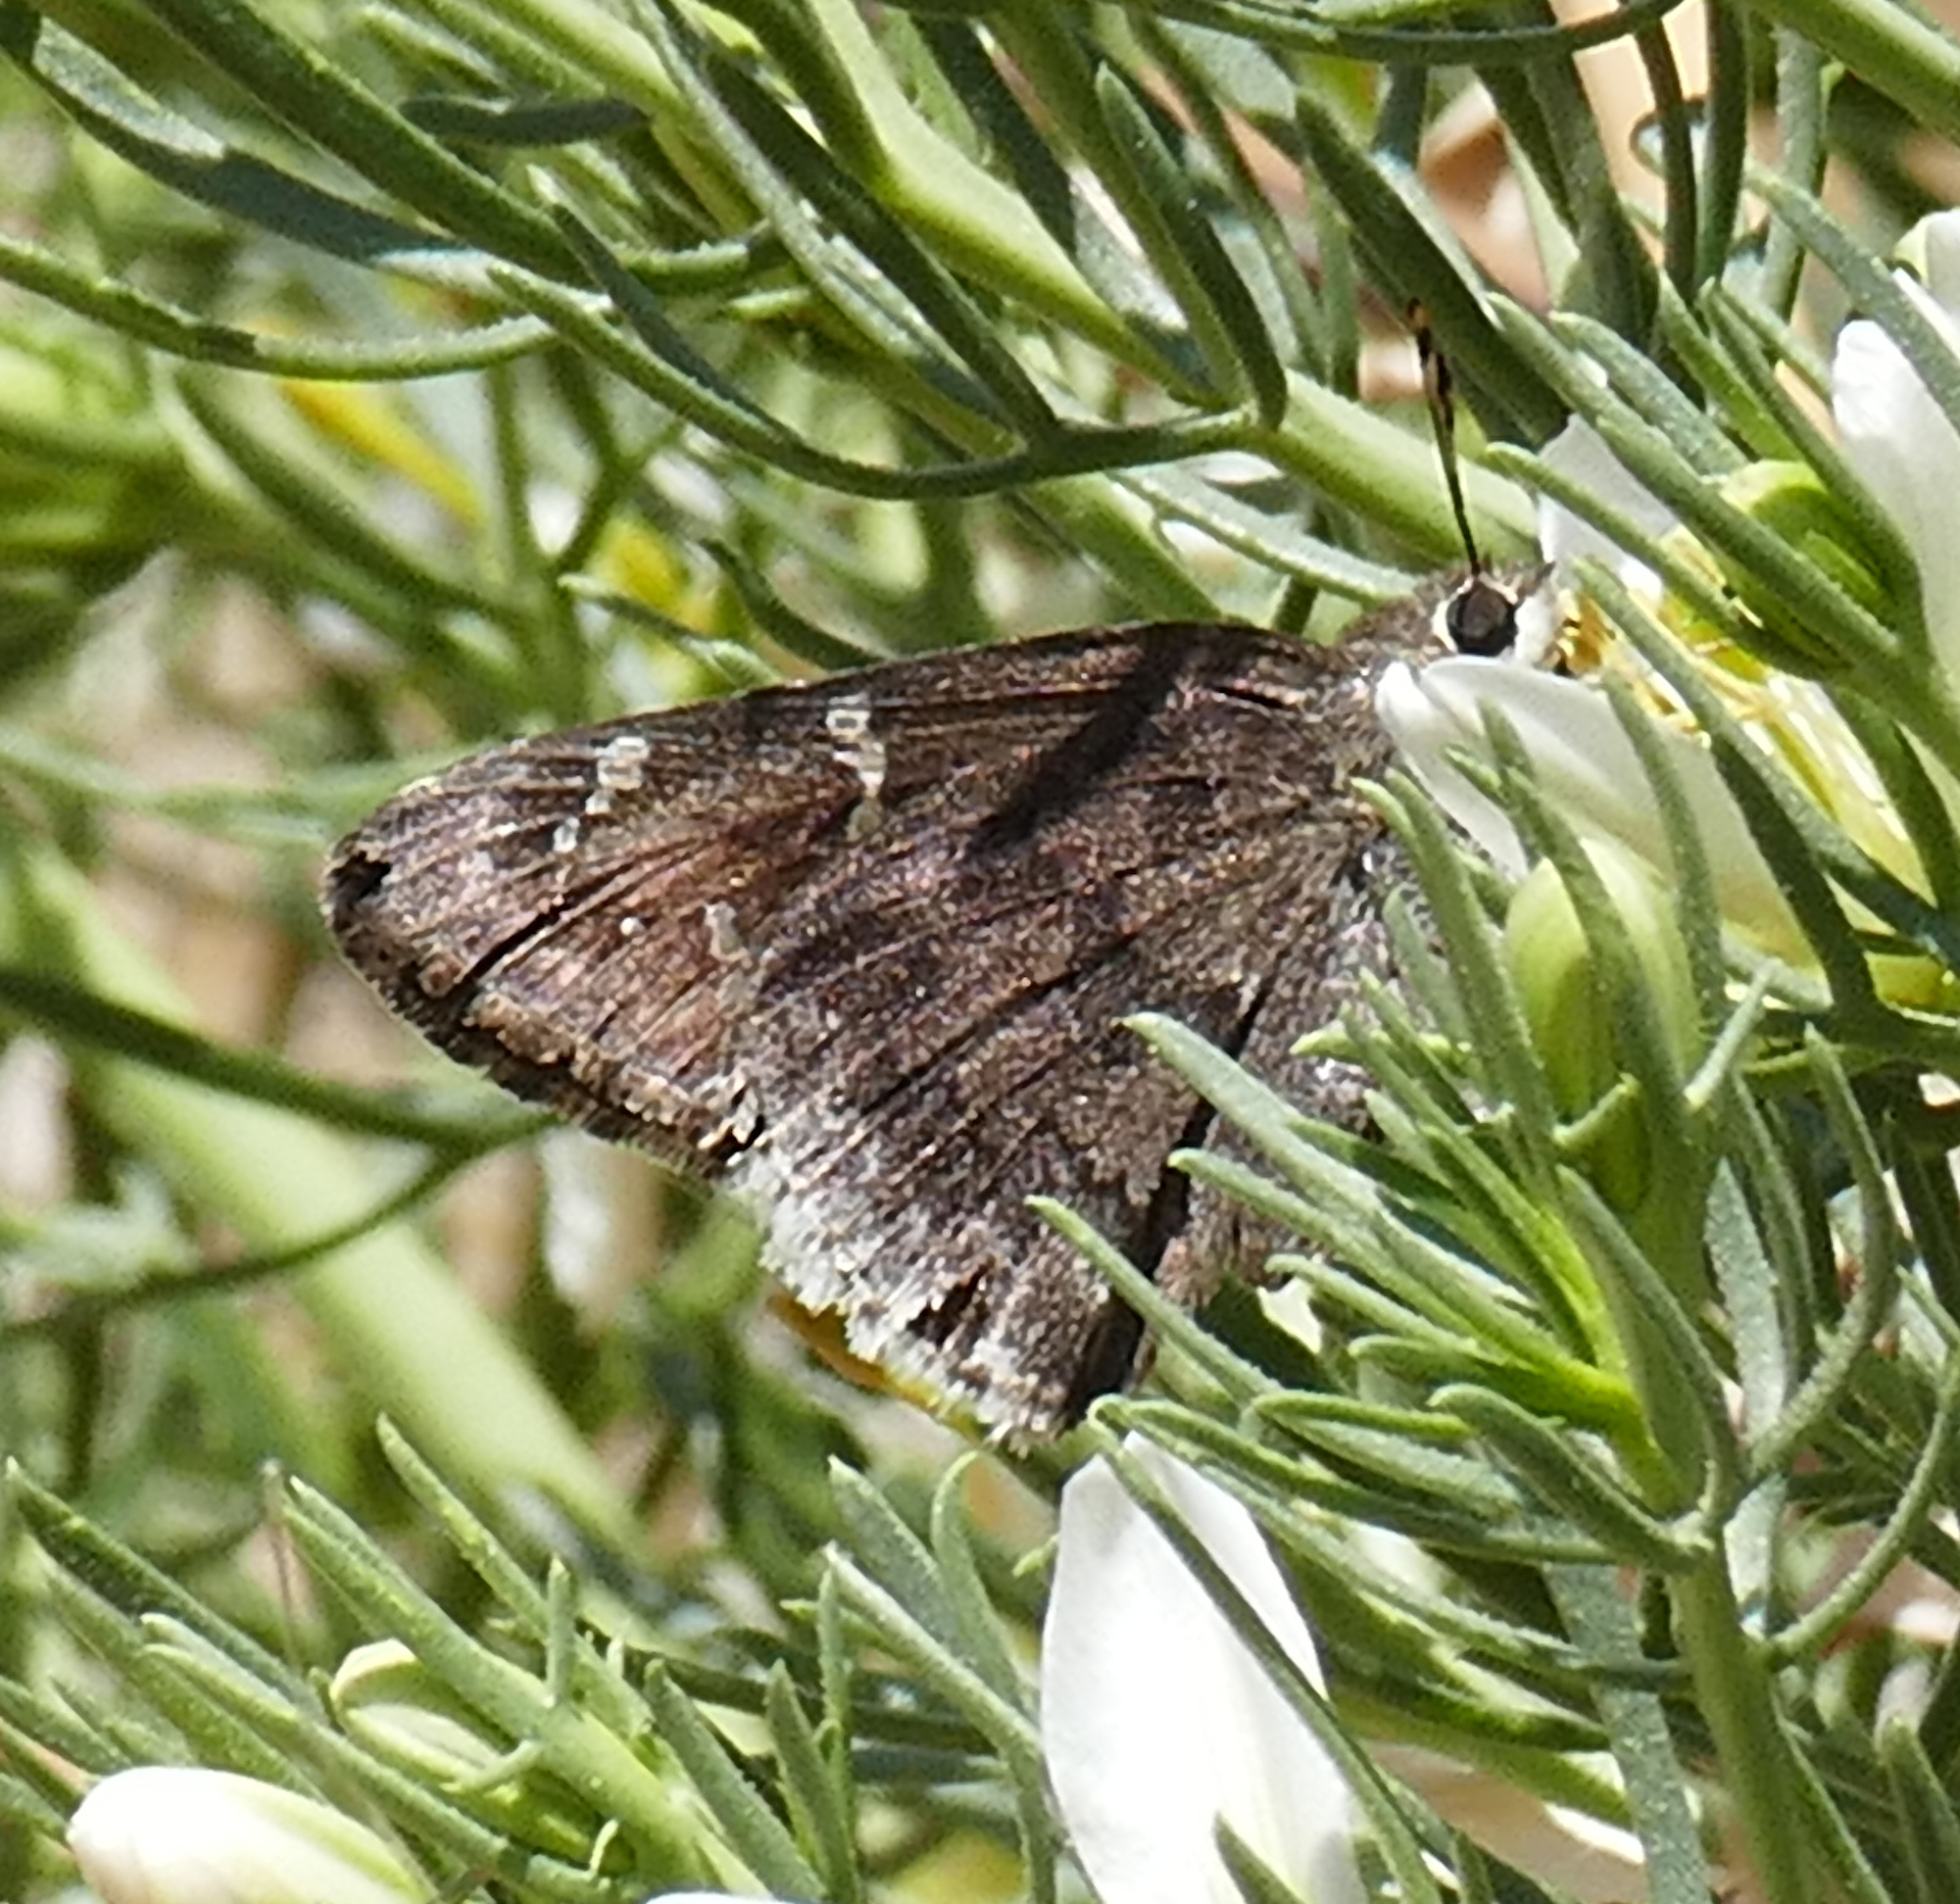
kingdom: Animalia
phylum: Arthropoda
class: Insecta
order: Lepidoptera
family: Hesperiidae
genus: Cogia
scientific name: Cogia hippalus
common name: Acacia skipper
